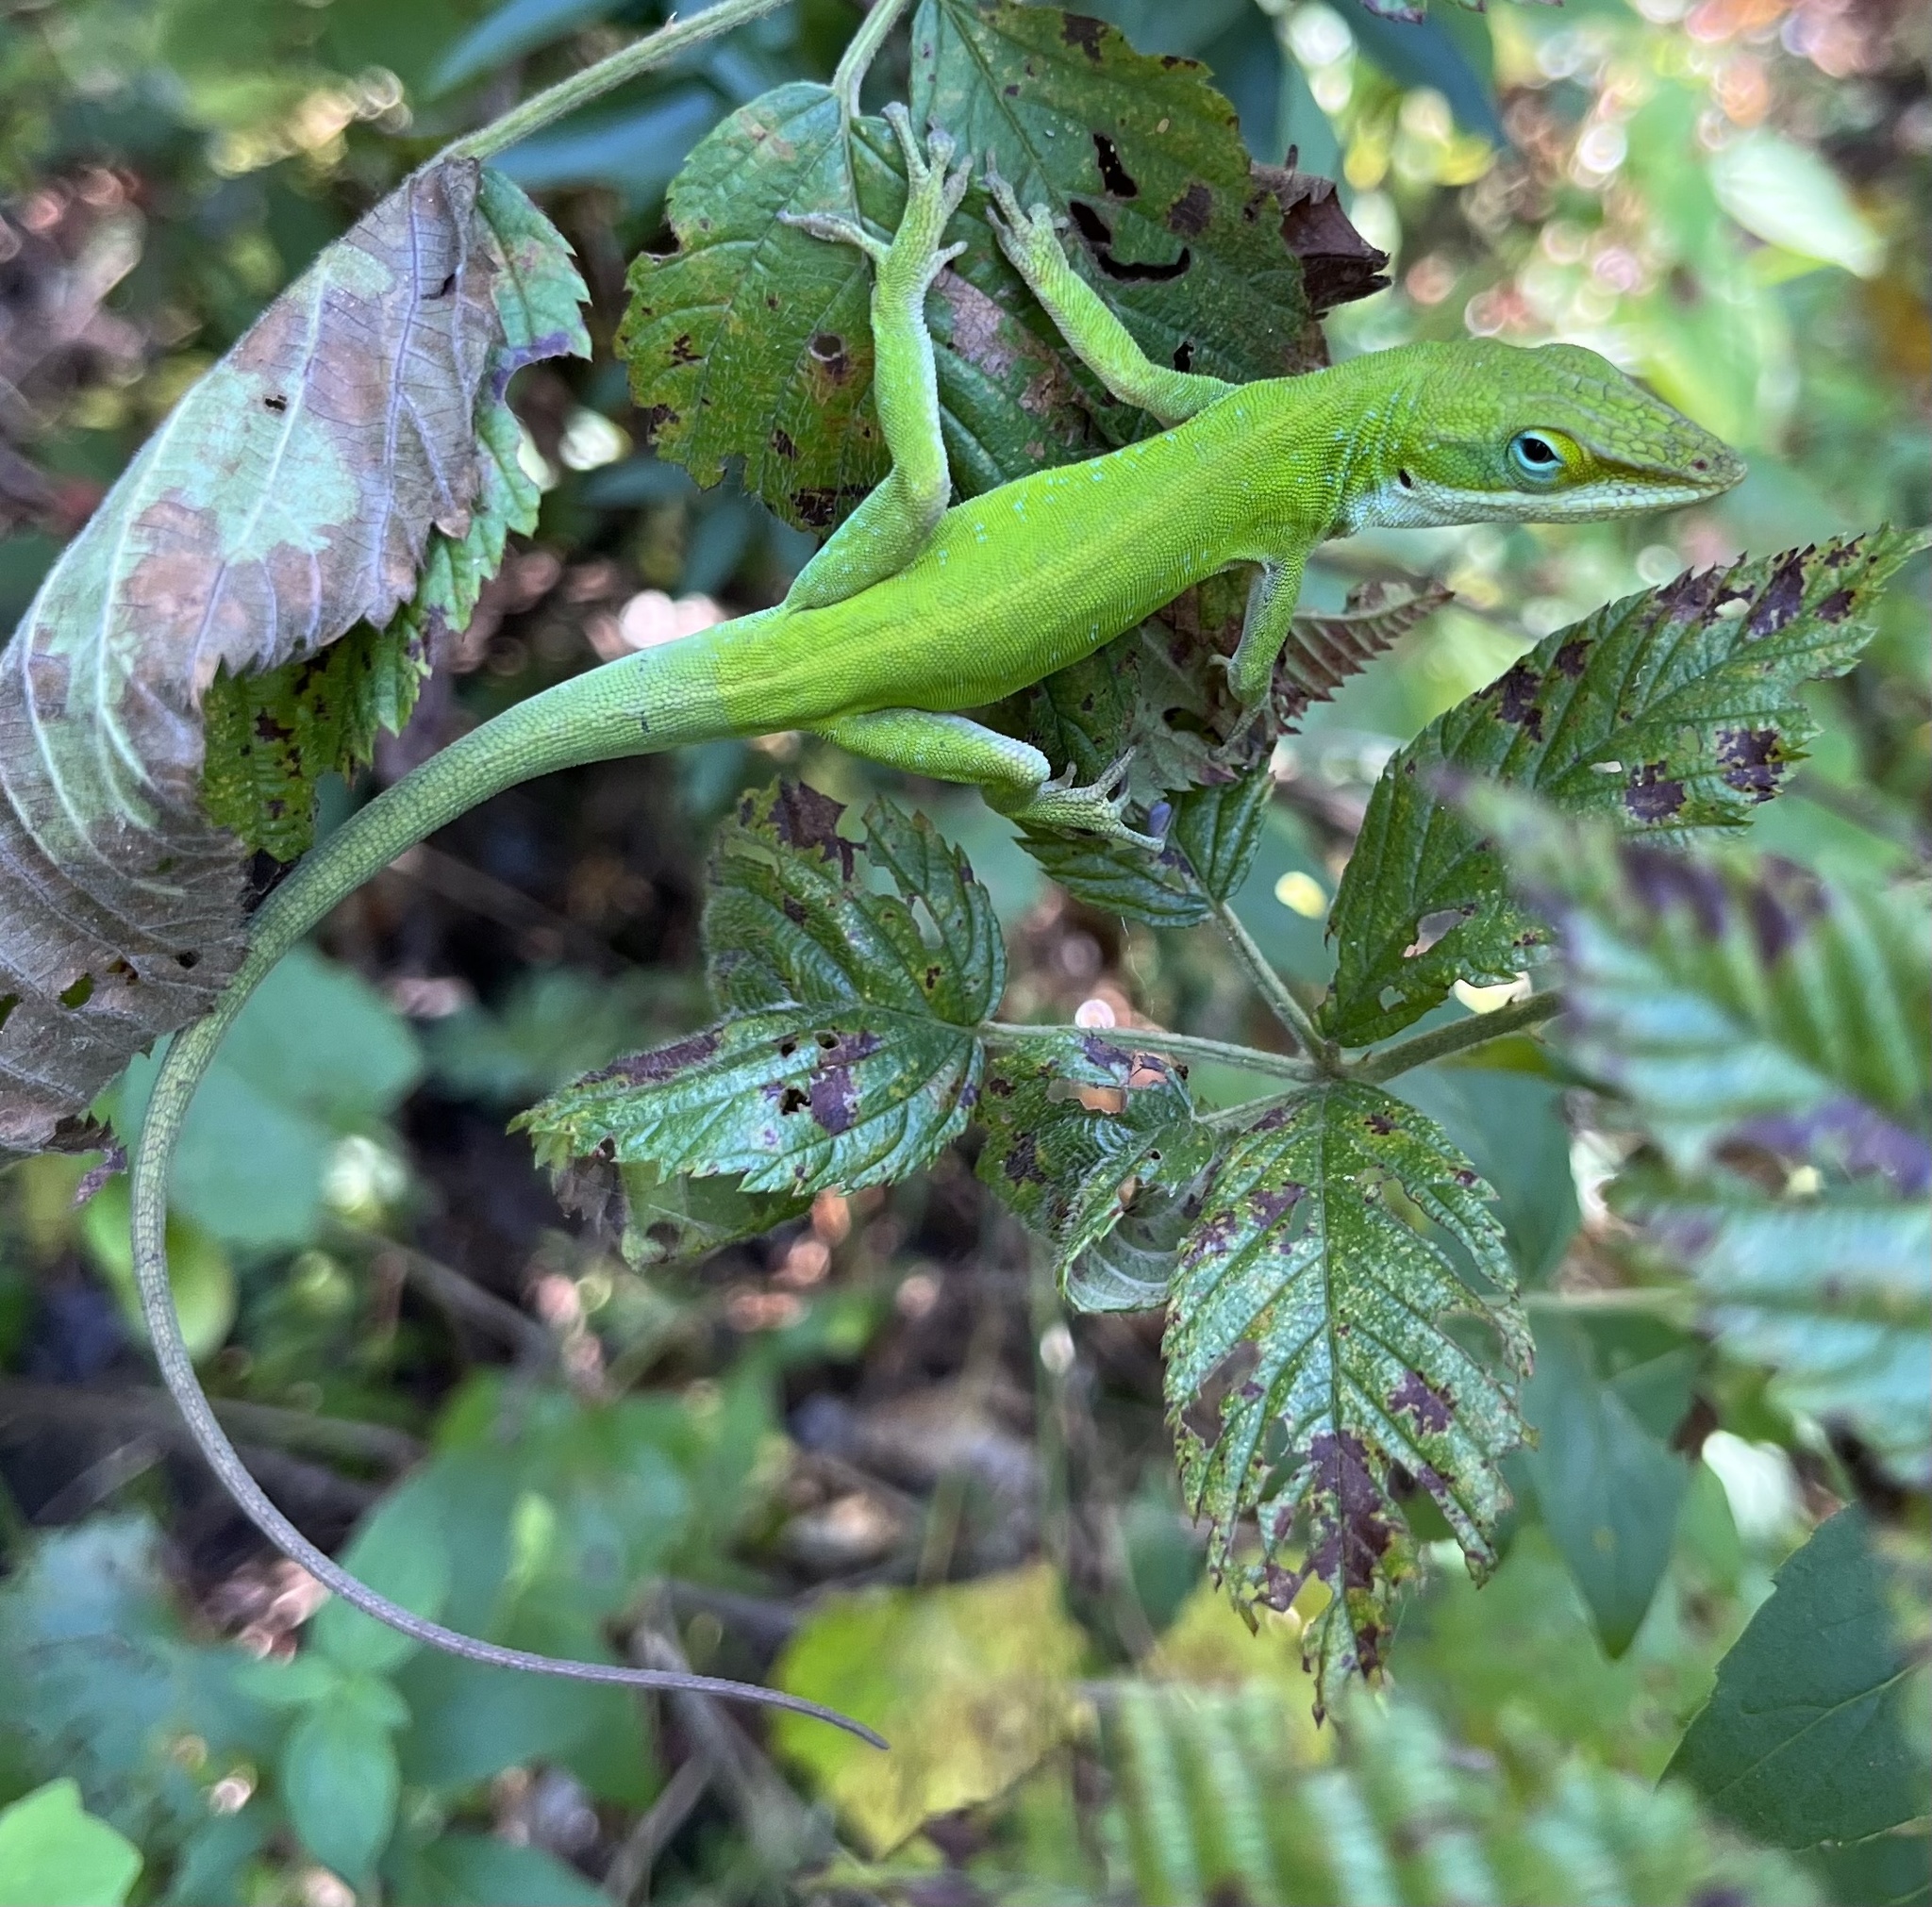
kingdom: Animalia
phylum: Chordata
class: Squamata
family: Dactyloidae
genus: Anolis
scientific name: Anolis carolinensis
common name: Green anole
